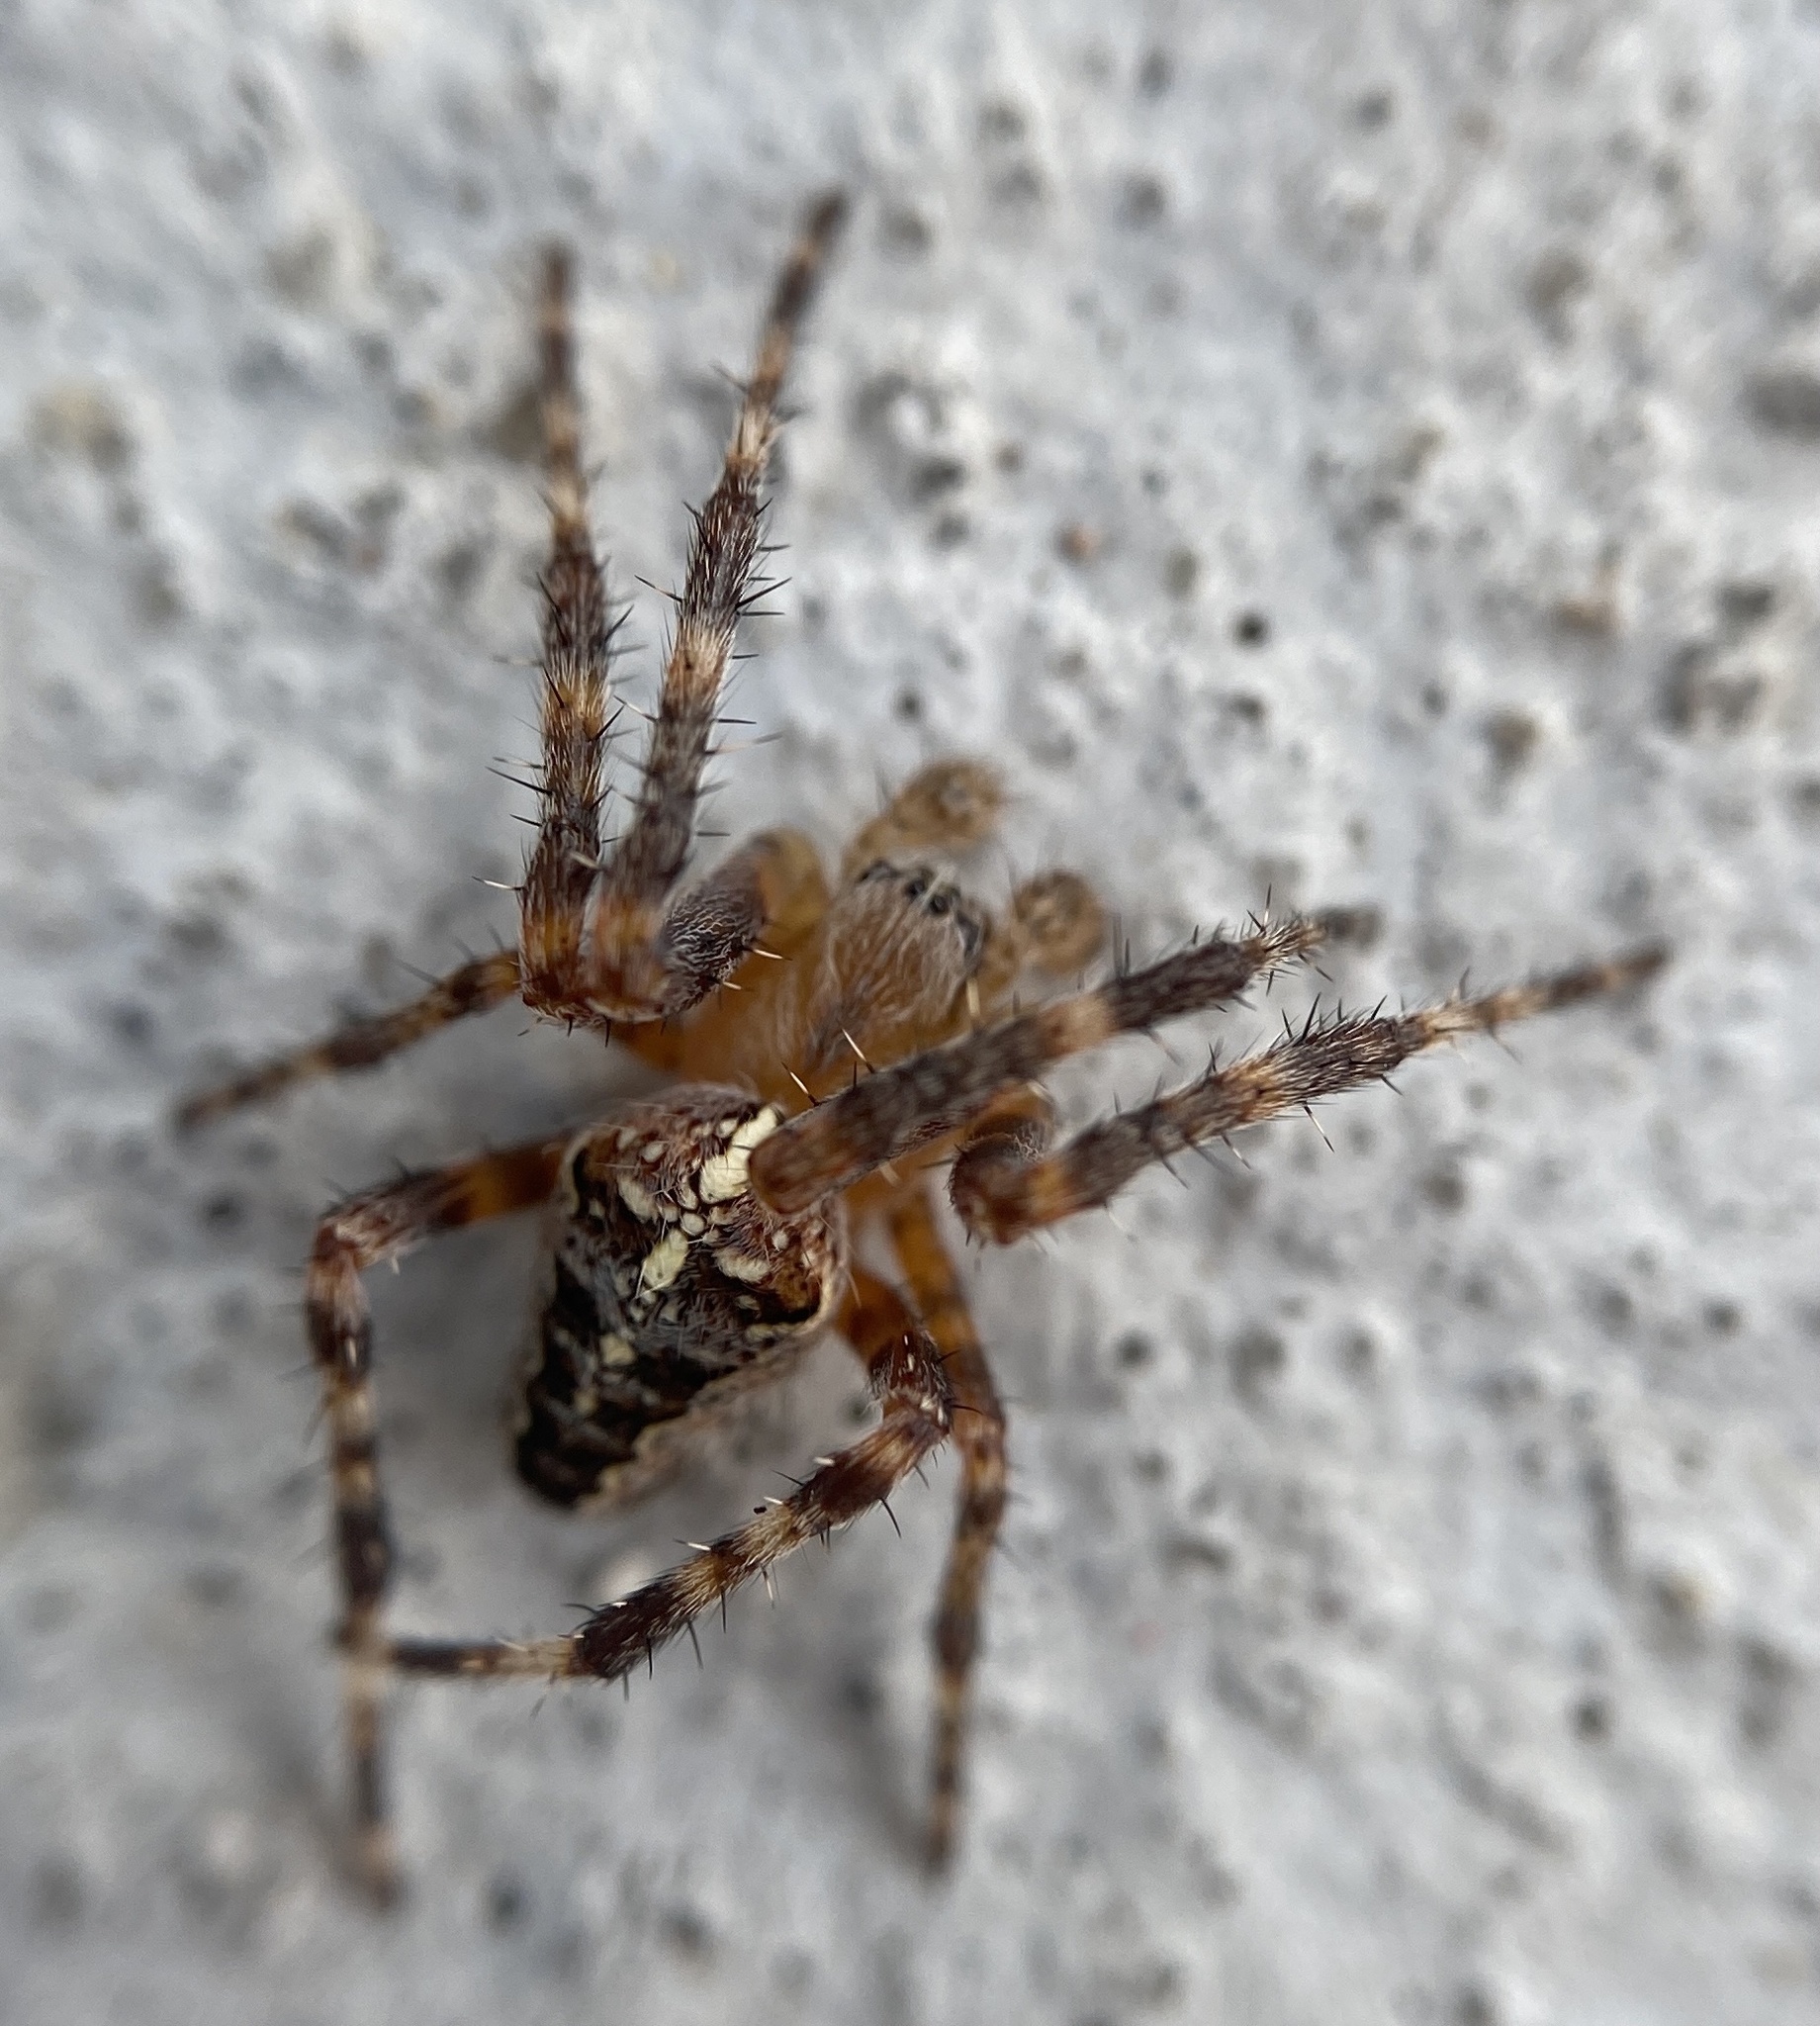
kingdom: Animalia
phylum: Arthropoda
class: Arachnida
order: Araneae
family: Araneidae
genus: Araneus
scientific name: Araneus diadematus
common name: Cross orbweaver
